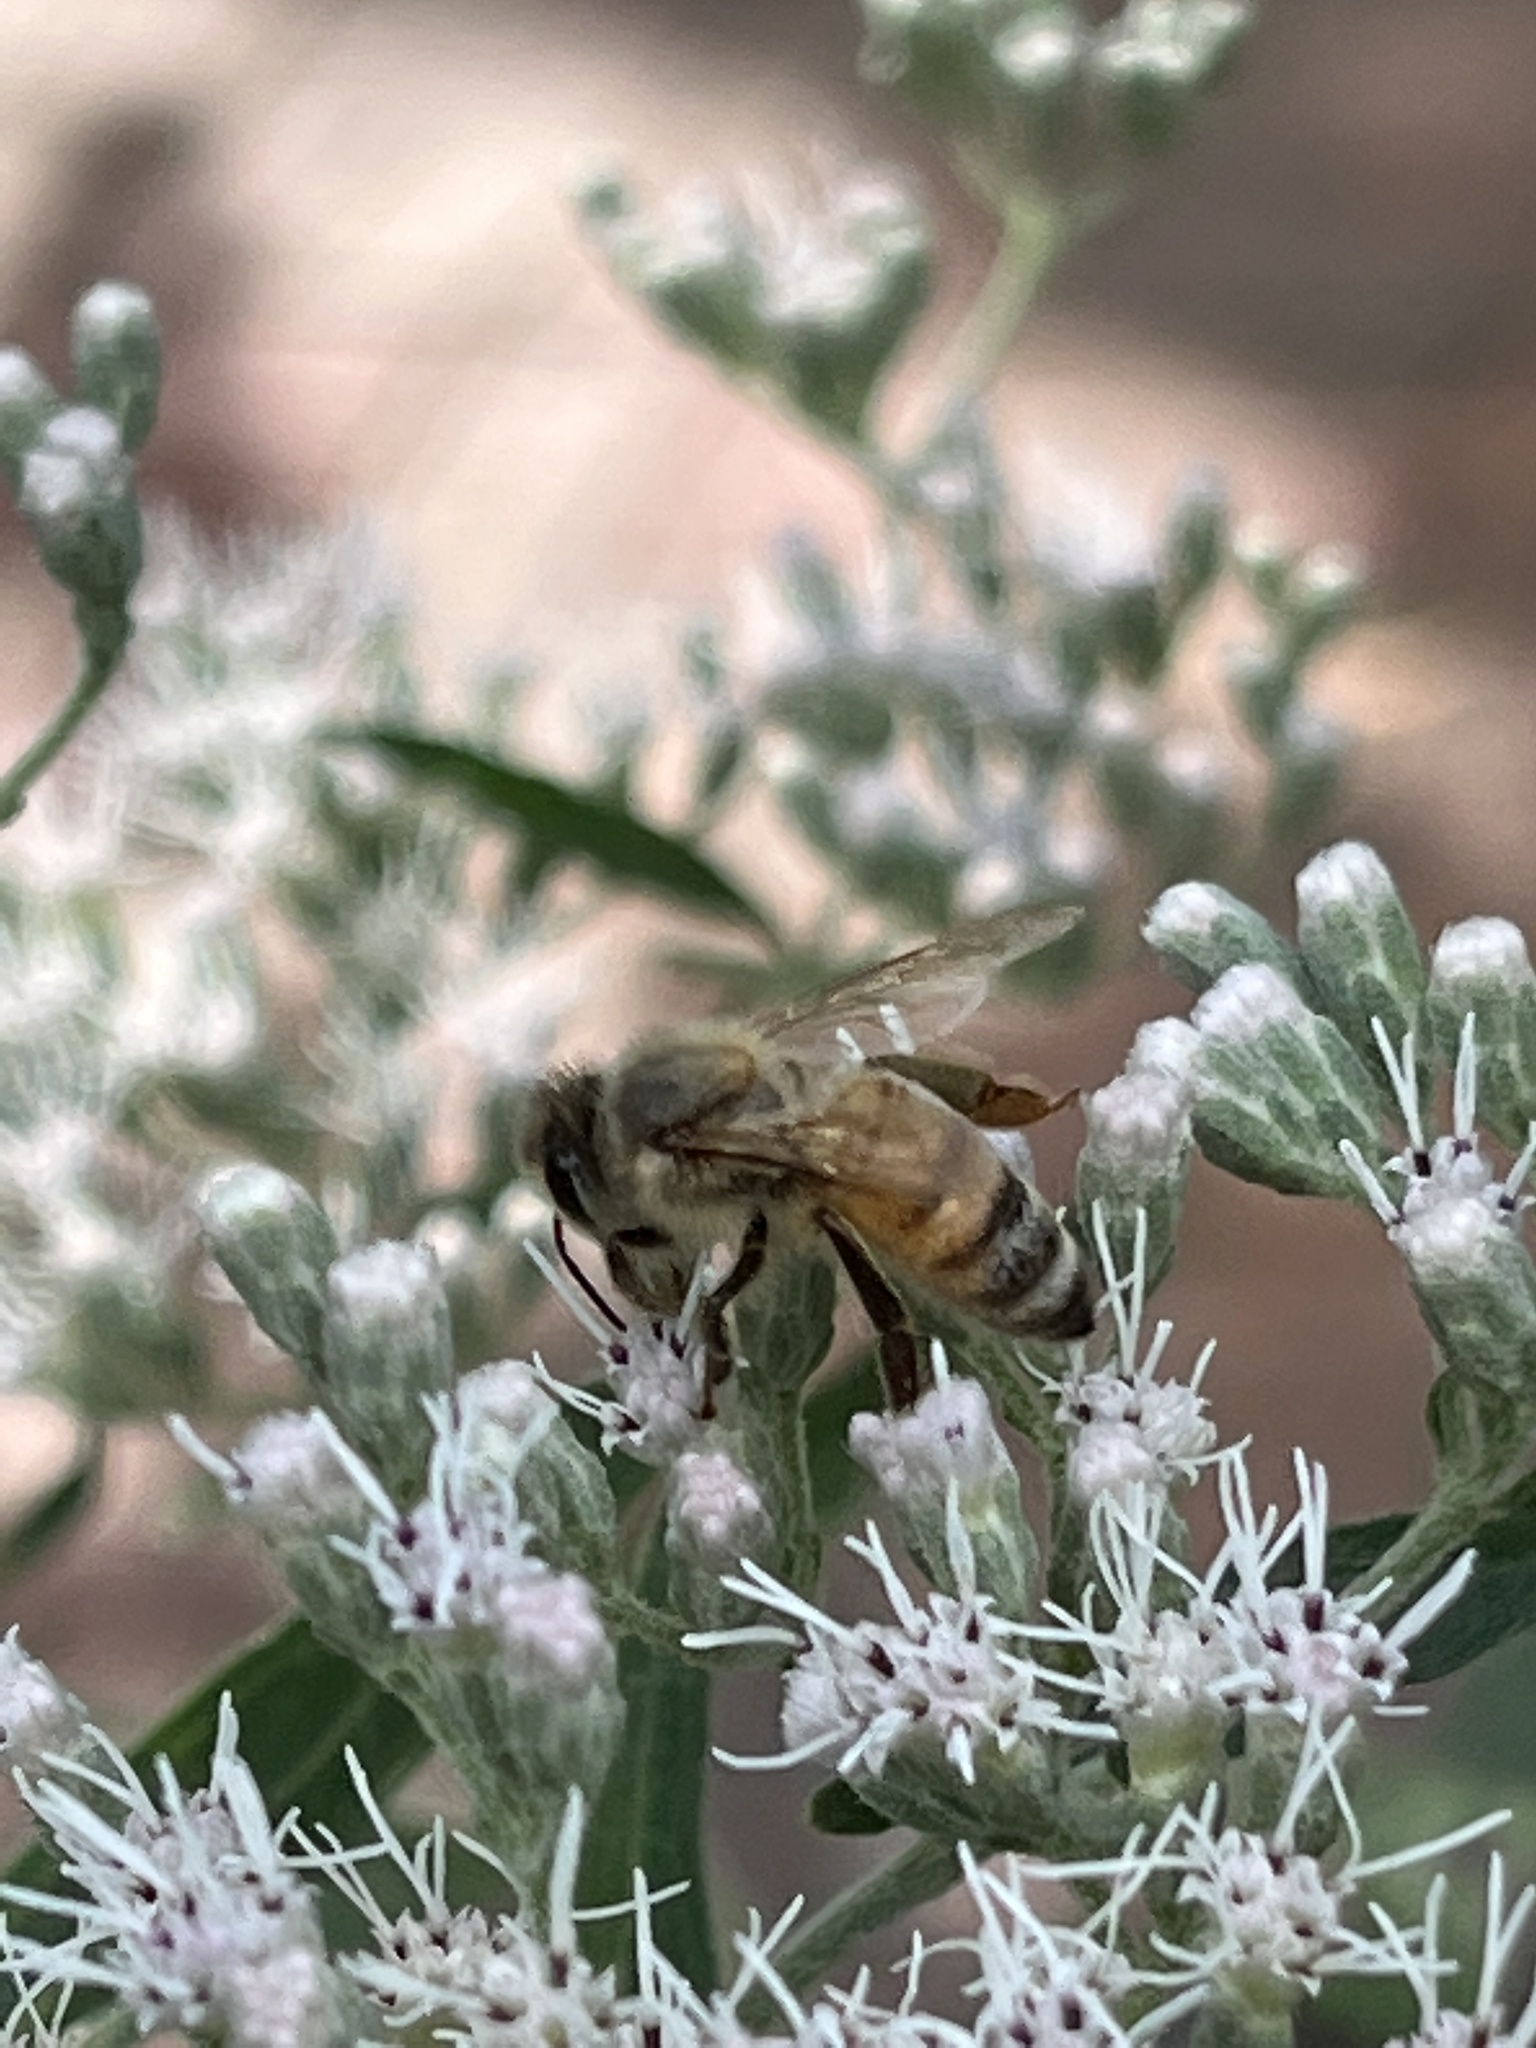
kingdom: Animalia
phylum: Arthropoda
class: Insecta
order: Hymenoptera
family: Apidae
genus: Apis
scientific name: Apis mellifera
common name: Honey bee
